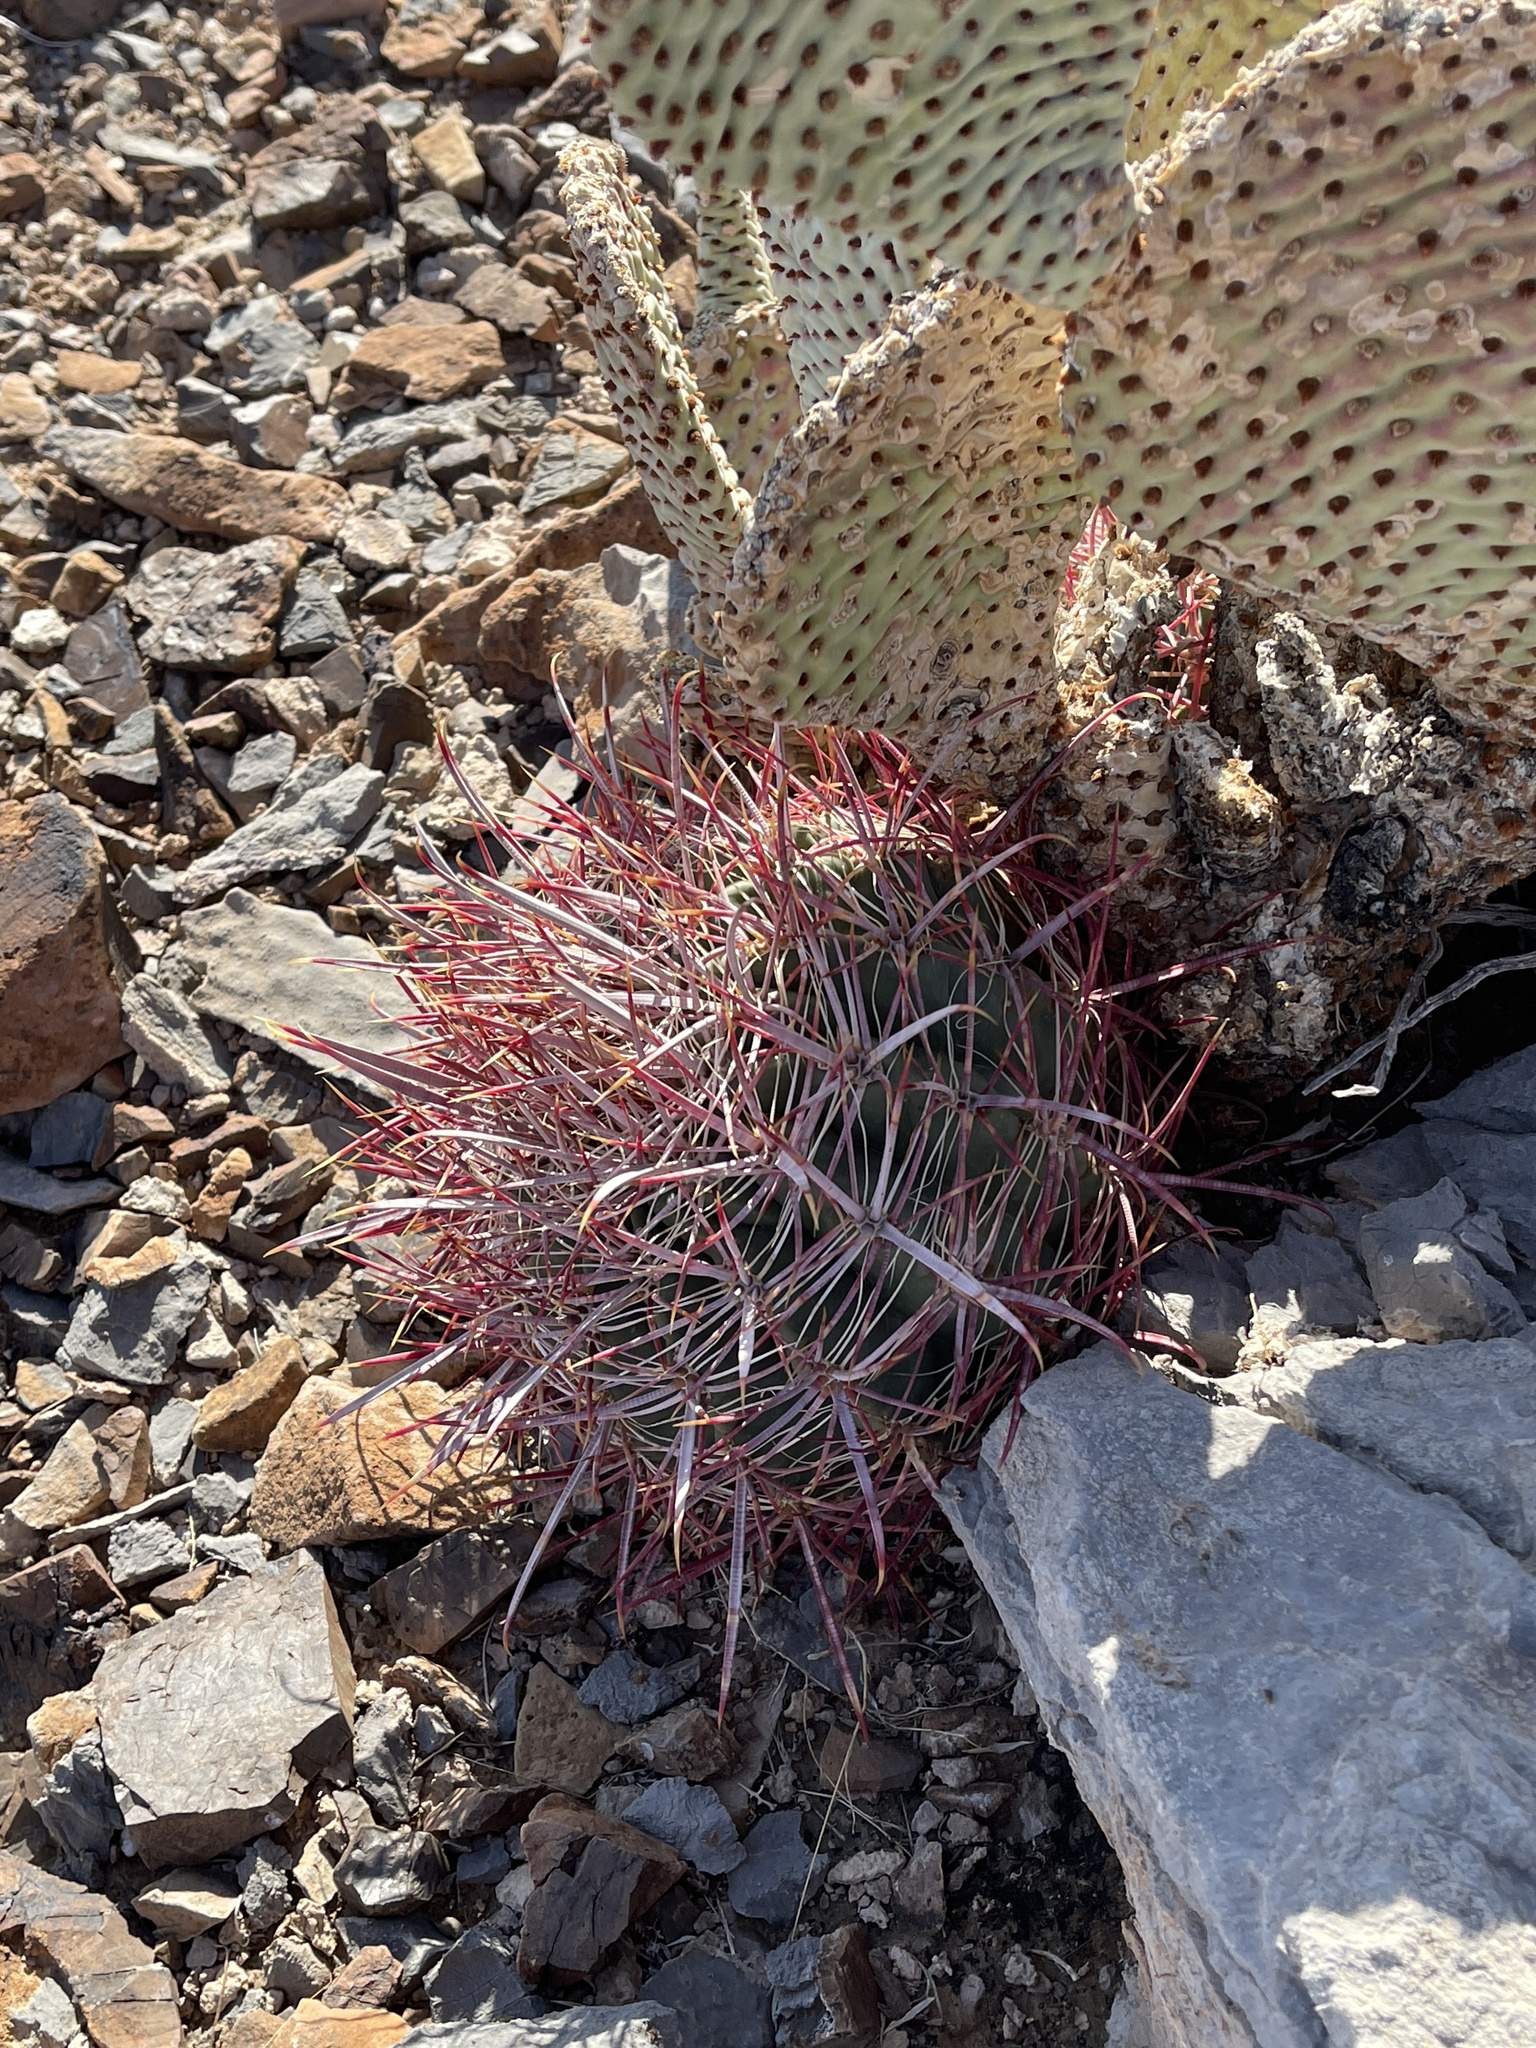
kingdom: Plantae
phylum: Tracheophyta
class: Magnoliopsida
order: Caryophyllales
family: Cactaceae
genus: Ferocactus
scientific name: Ferocactus cylindraceus
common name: California barrel cactus
